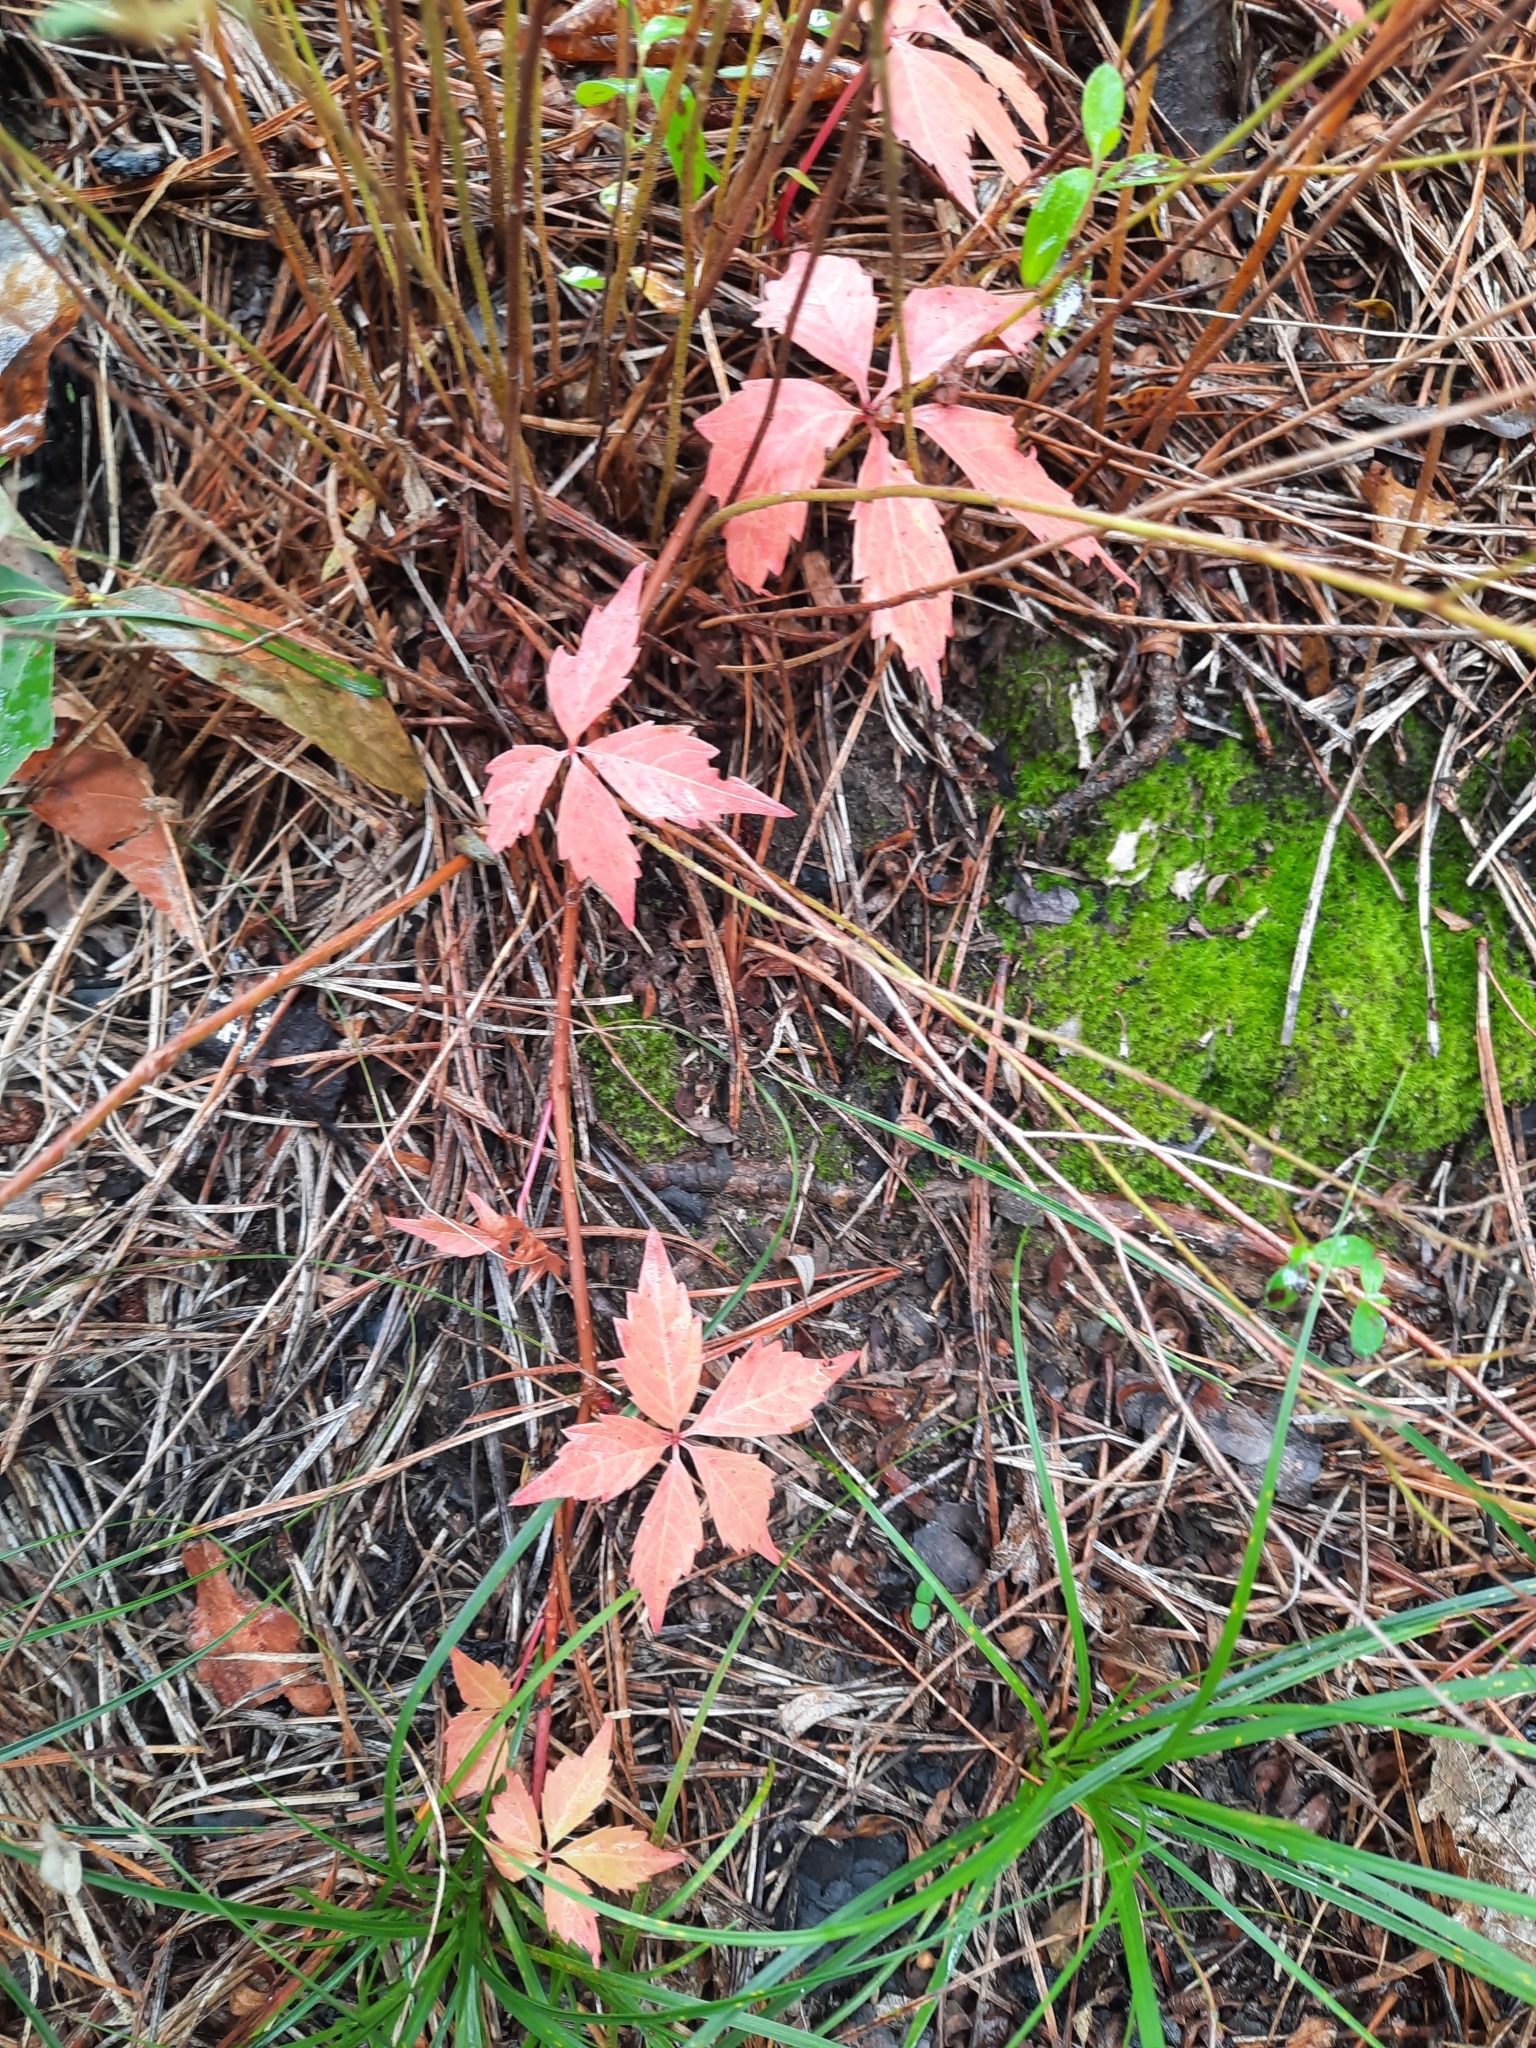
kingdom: Plantae
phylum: Tracheophyta
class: Magnoliopsida
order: Vitales
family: Vitaceae
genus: Parthenocissus
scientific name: Parthenocissus
